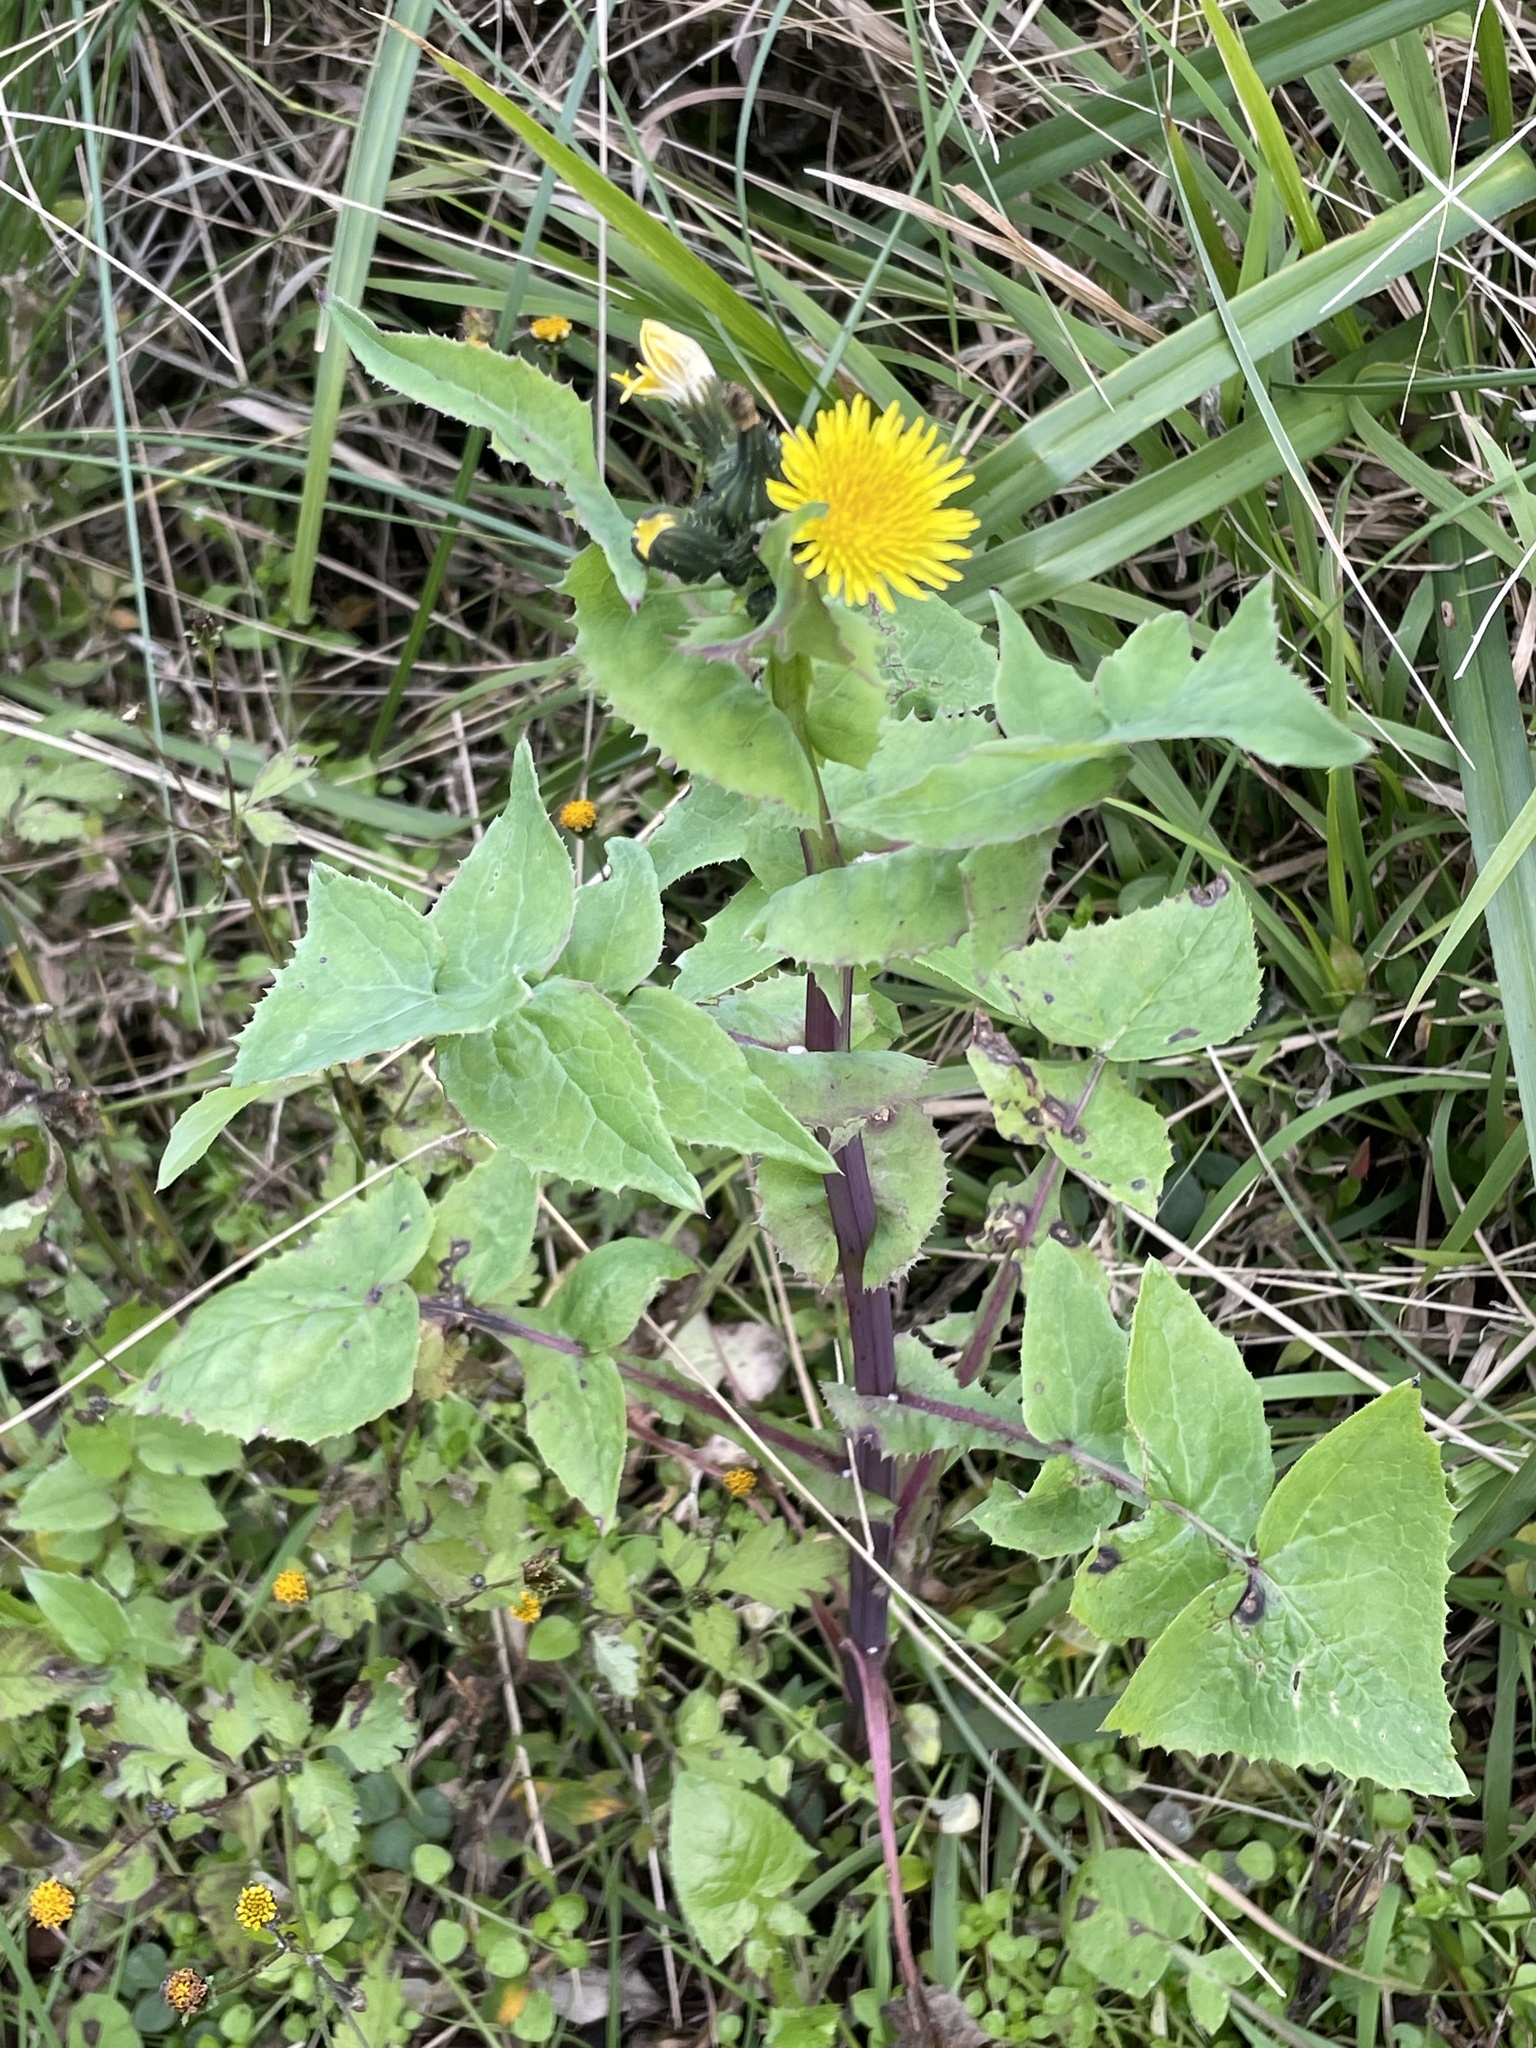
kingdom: Plantae
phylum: Tracheophyta
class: Magnoliopsida
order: Asterales
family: Asteraceae
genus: Sonchus
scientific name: Sonchus oleraceus
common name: Common sowthistle
